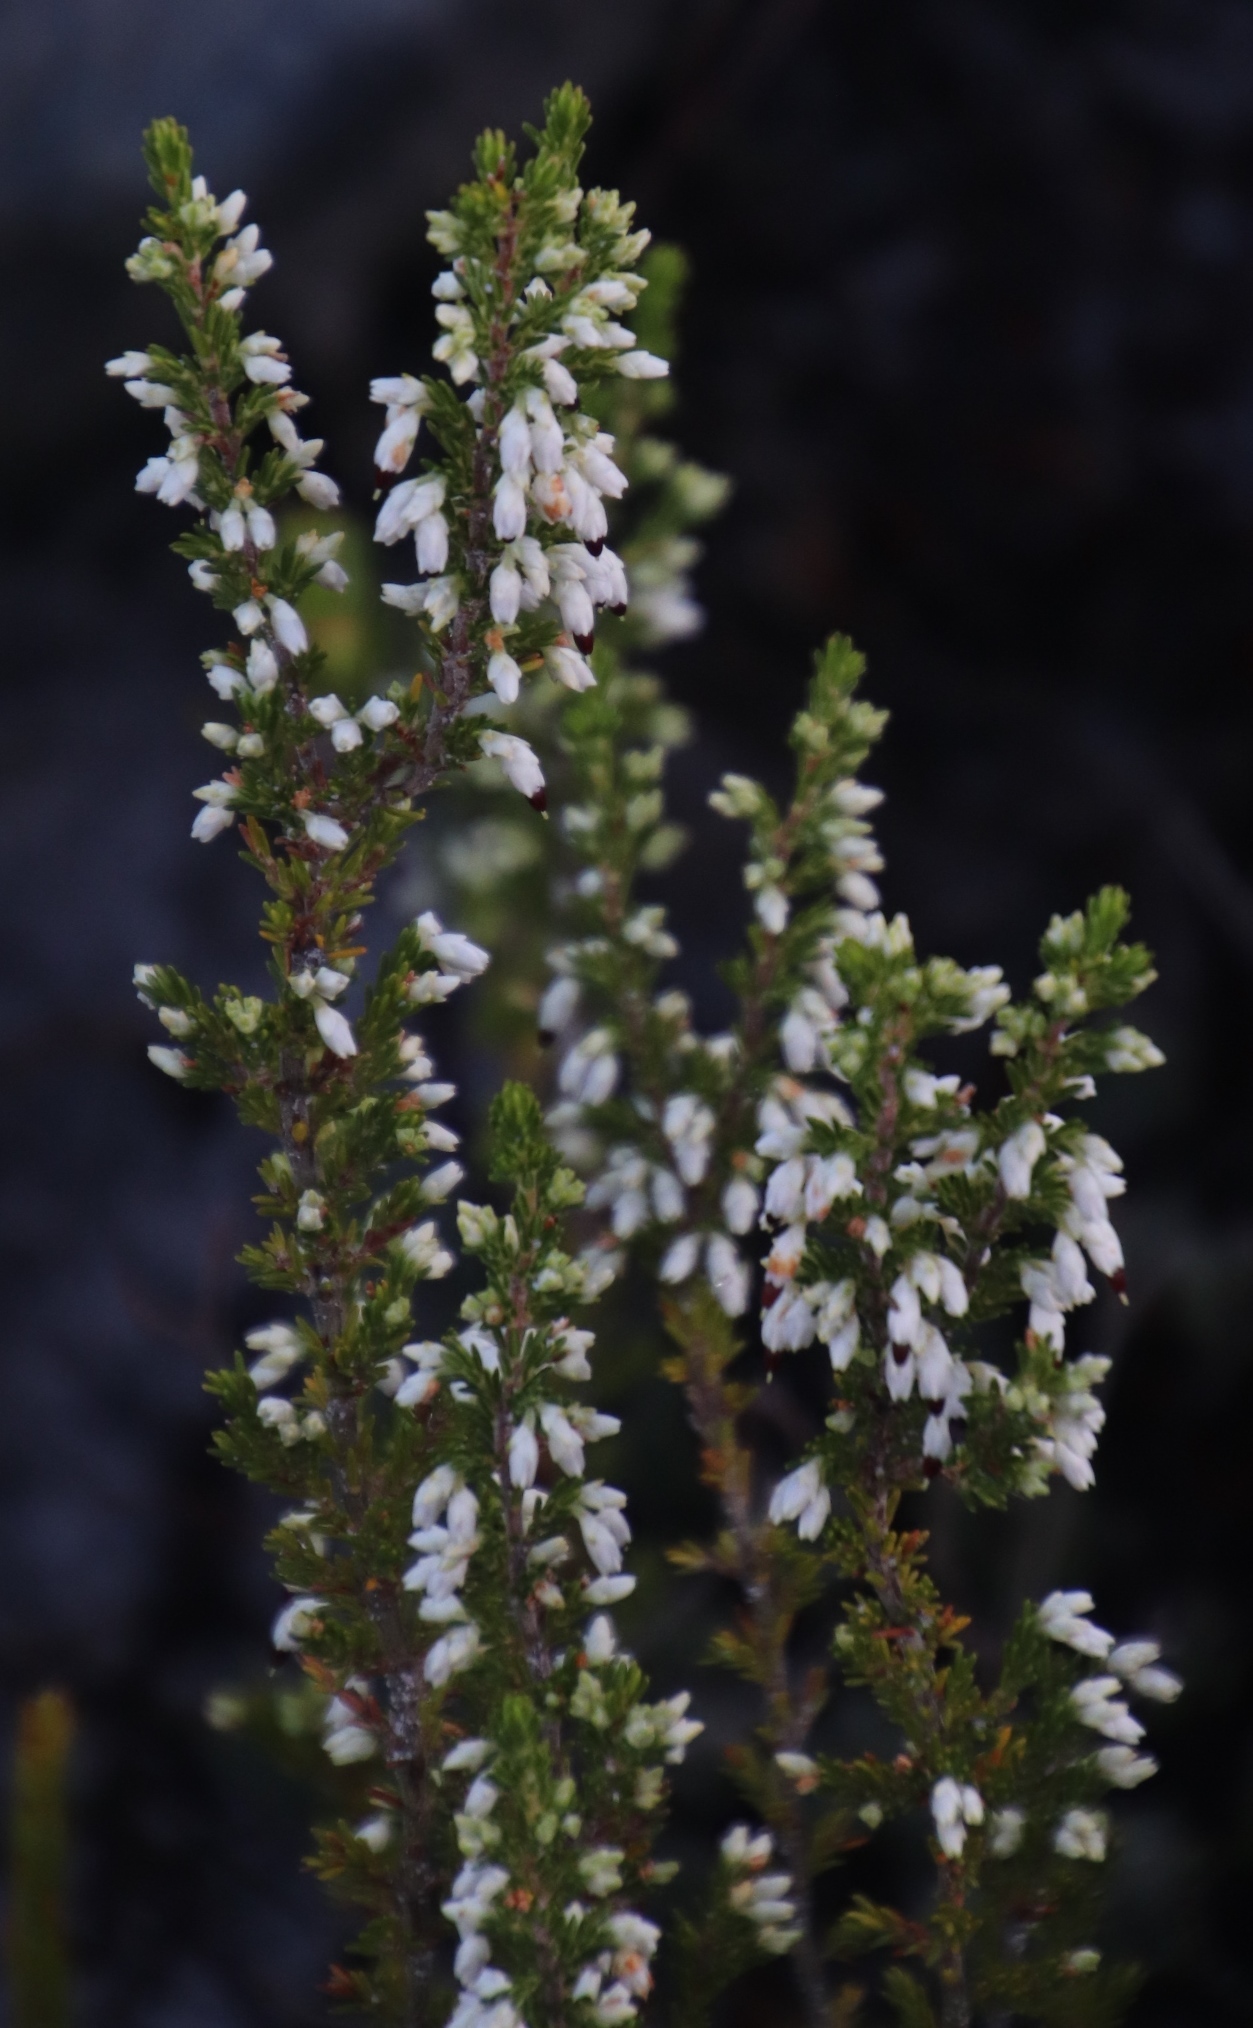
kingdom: Plantae
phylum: Tracheophyta
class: Magnoliopsida
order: Ericales
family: Ericaceae
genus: Erica
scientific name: Erica imbricata
